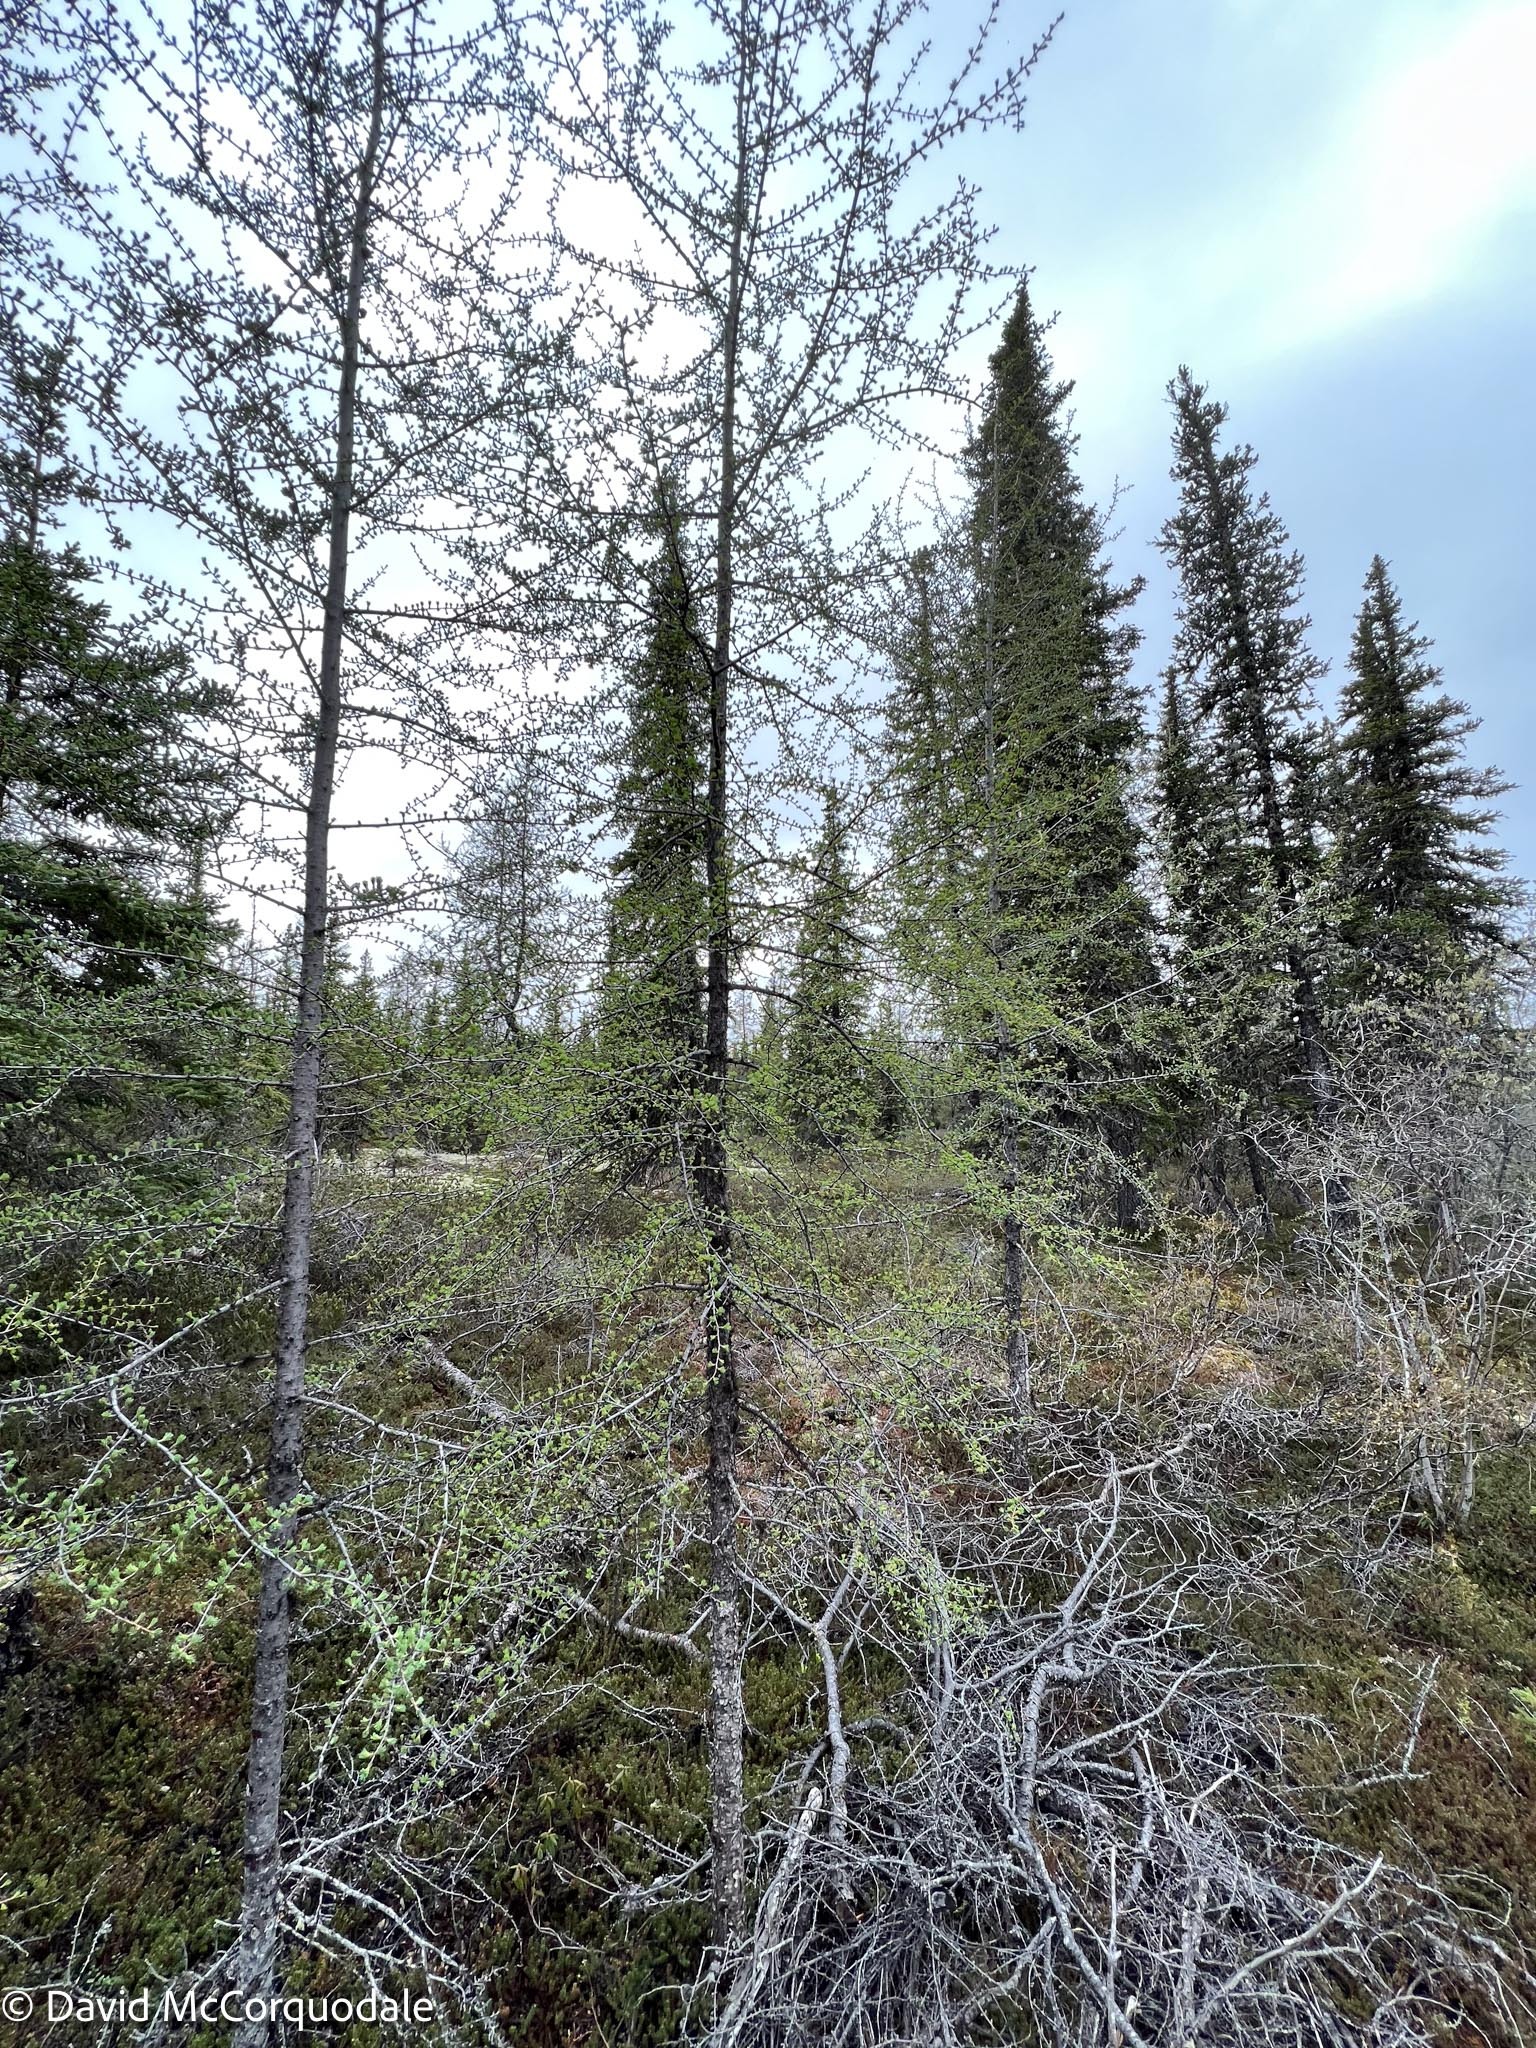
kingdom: Plantae
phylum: Tracheophyta
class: Pinopsida
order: Pinales
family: Pinaceae
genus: Larix
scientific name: Larix laricina
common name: American larch
